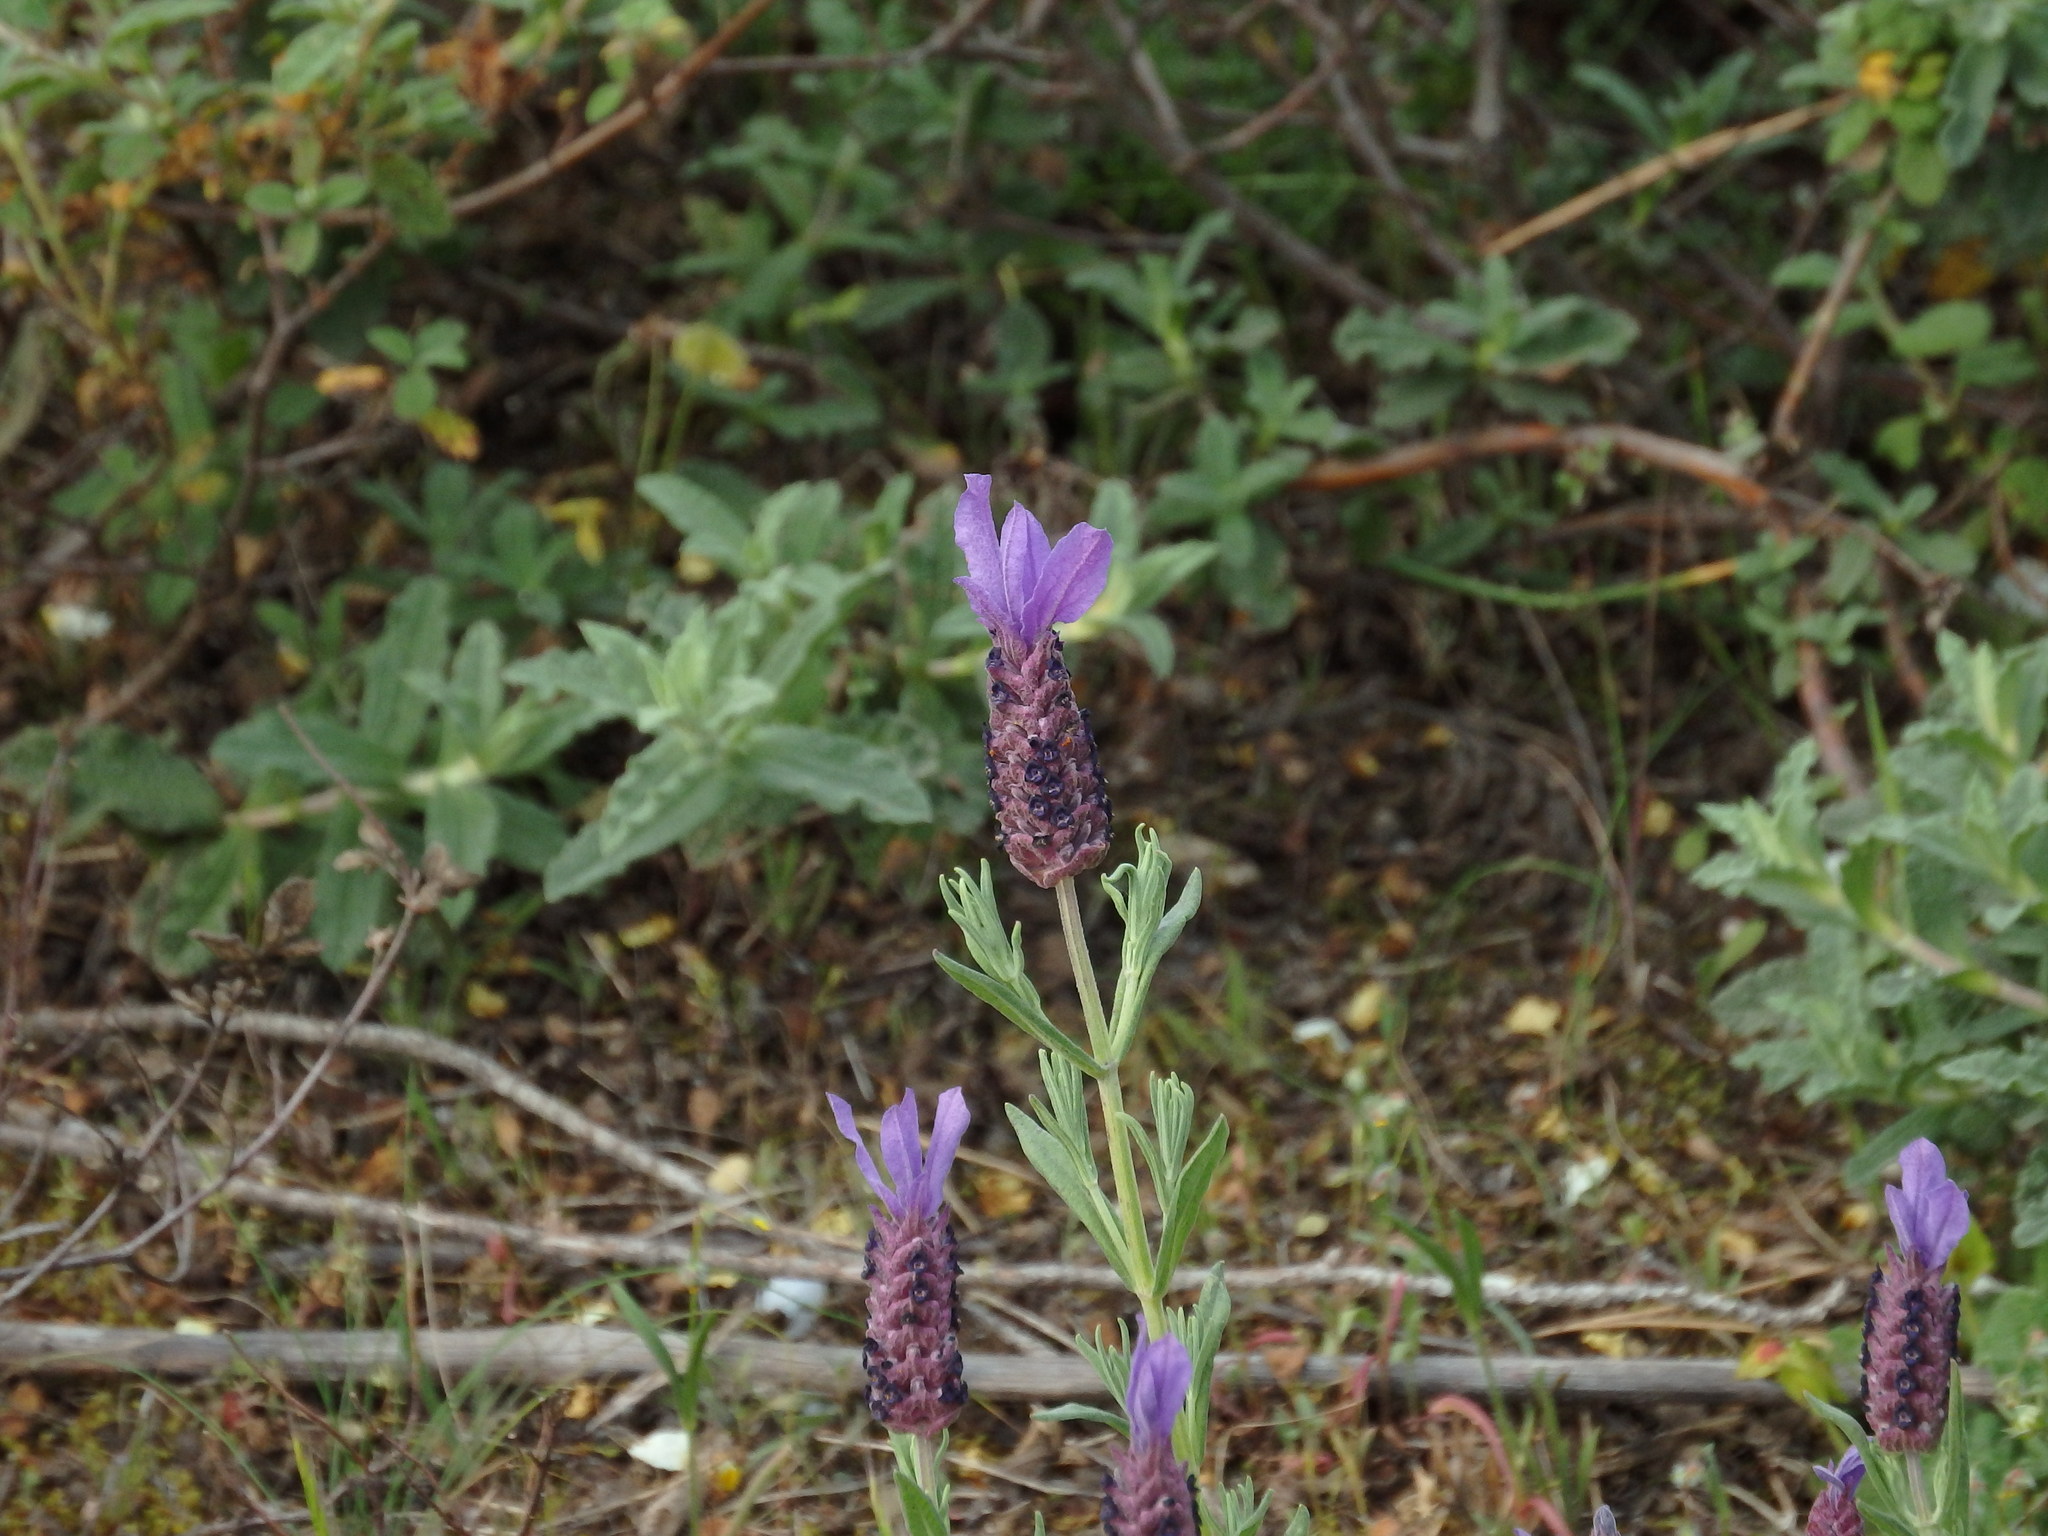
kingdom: Plantae
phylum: Tracheophyta
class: Magnoliopsida
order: Lamiales
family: Lamiaceae
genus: Lavandula
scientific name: Lavandula stoechas
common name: French lavender
